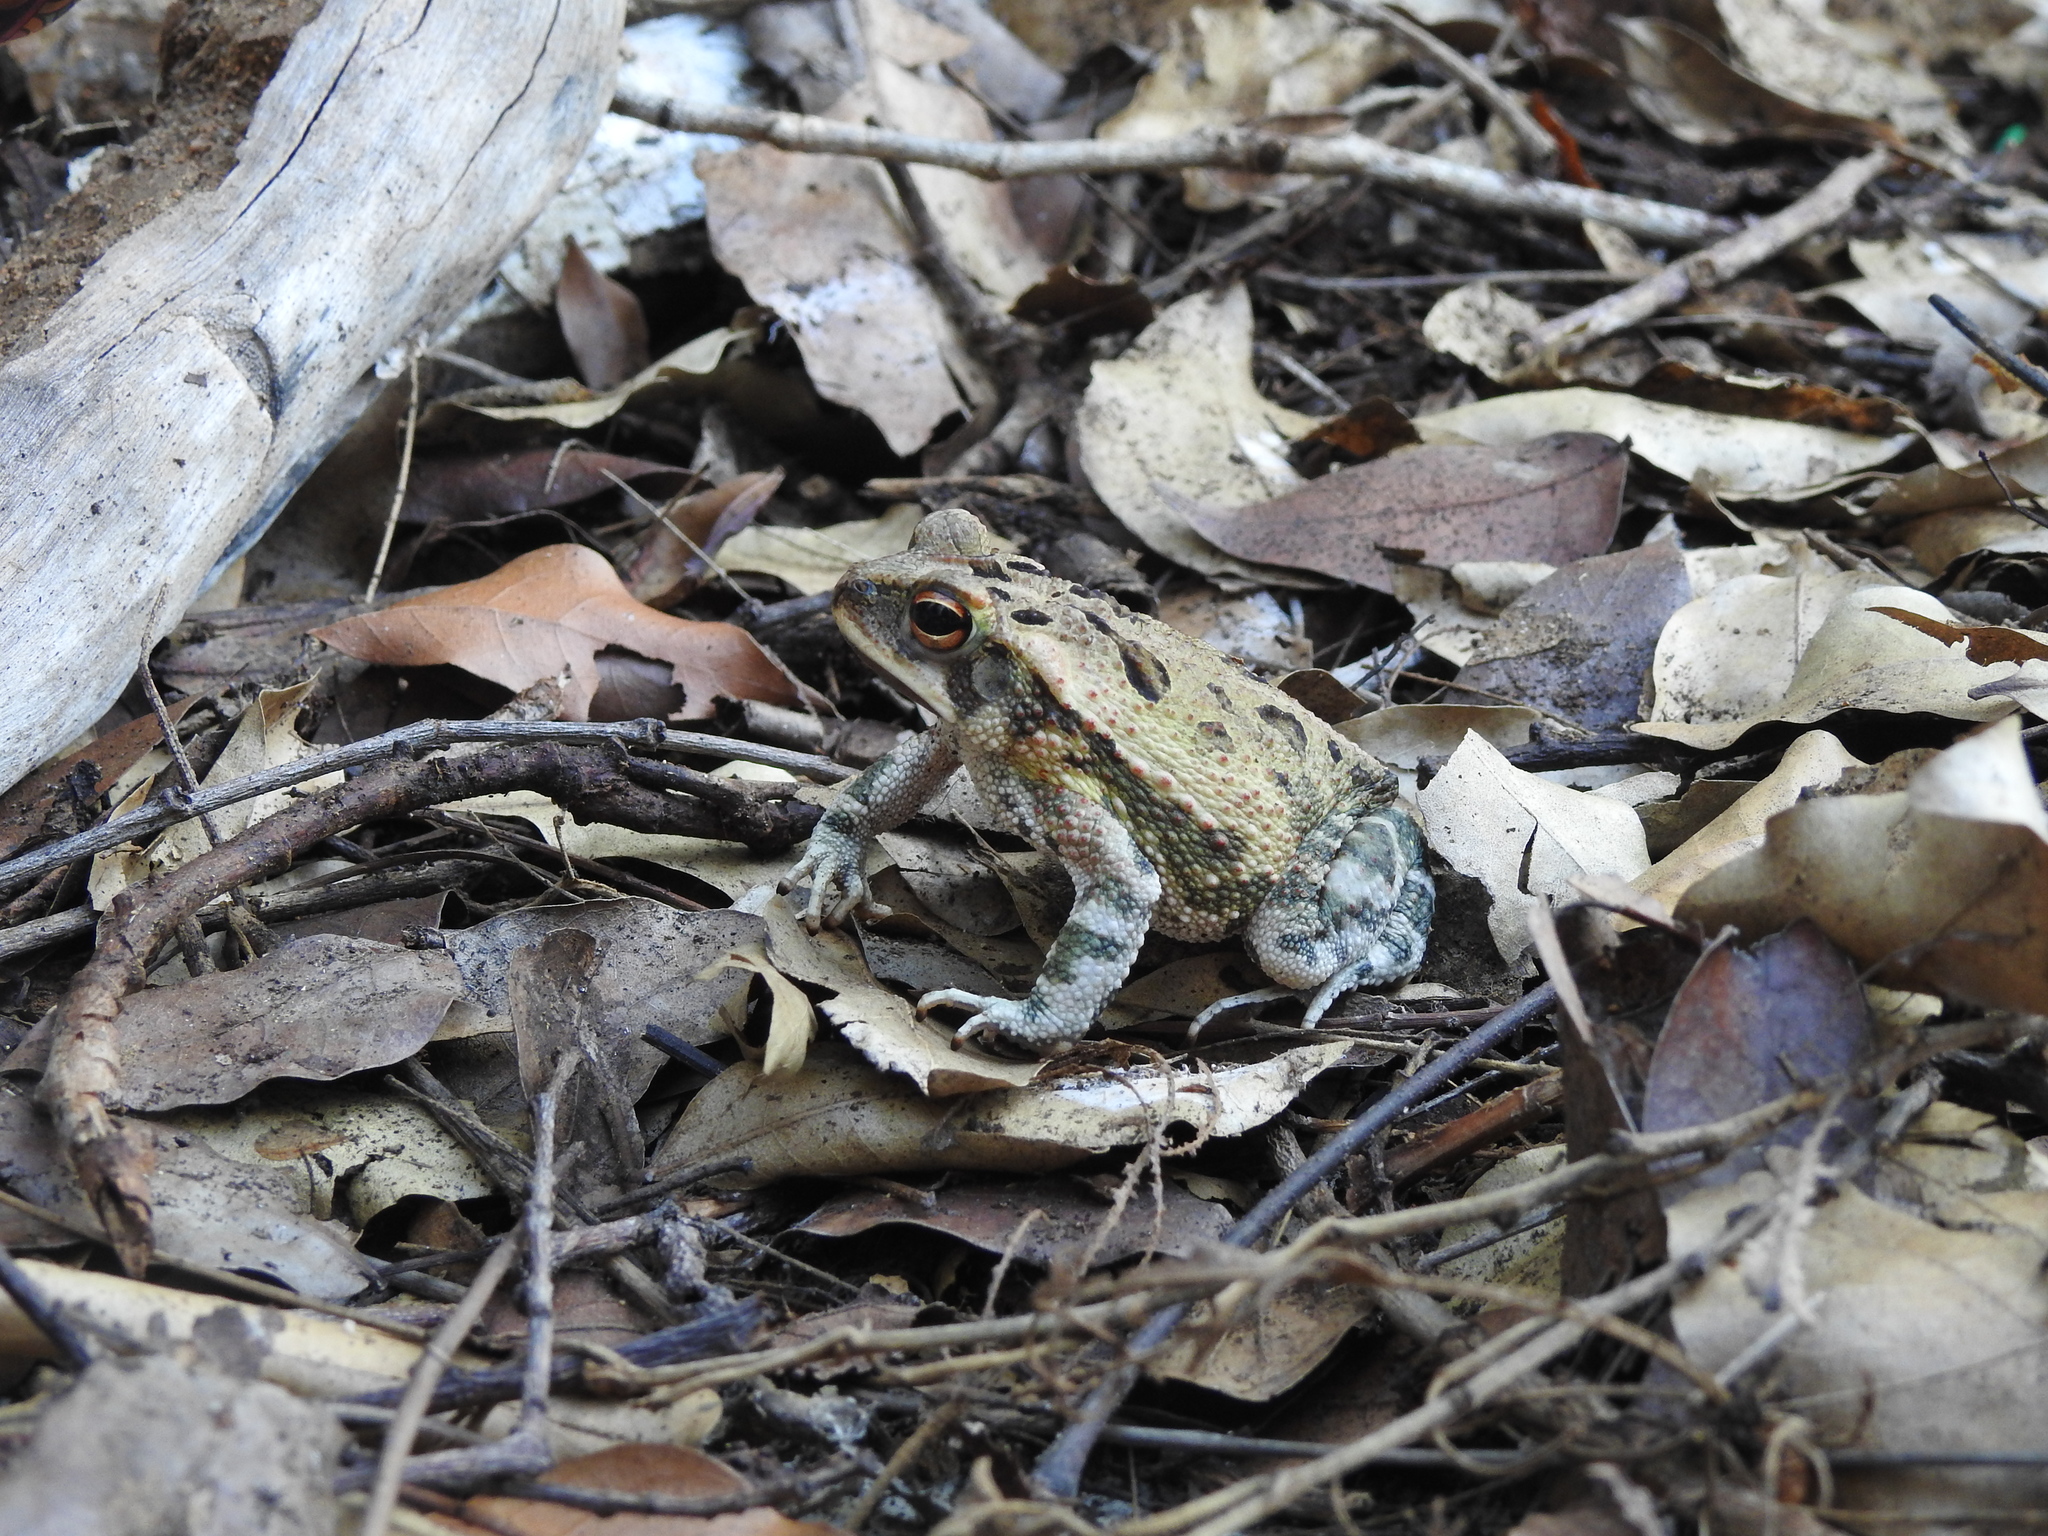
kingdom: Animalia
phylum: Chordata
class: Amphibia
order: Anura
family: Bufonidae
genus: Incilius
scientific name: Incilius marmoreus
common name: Marbled toad
